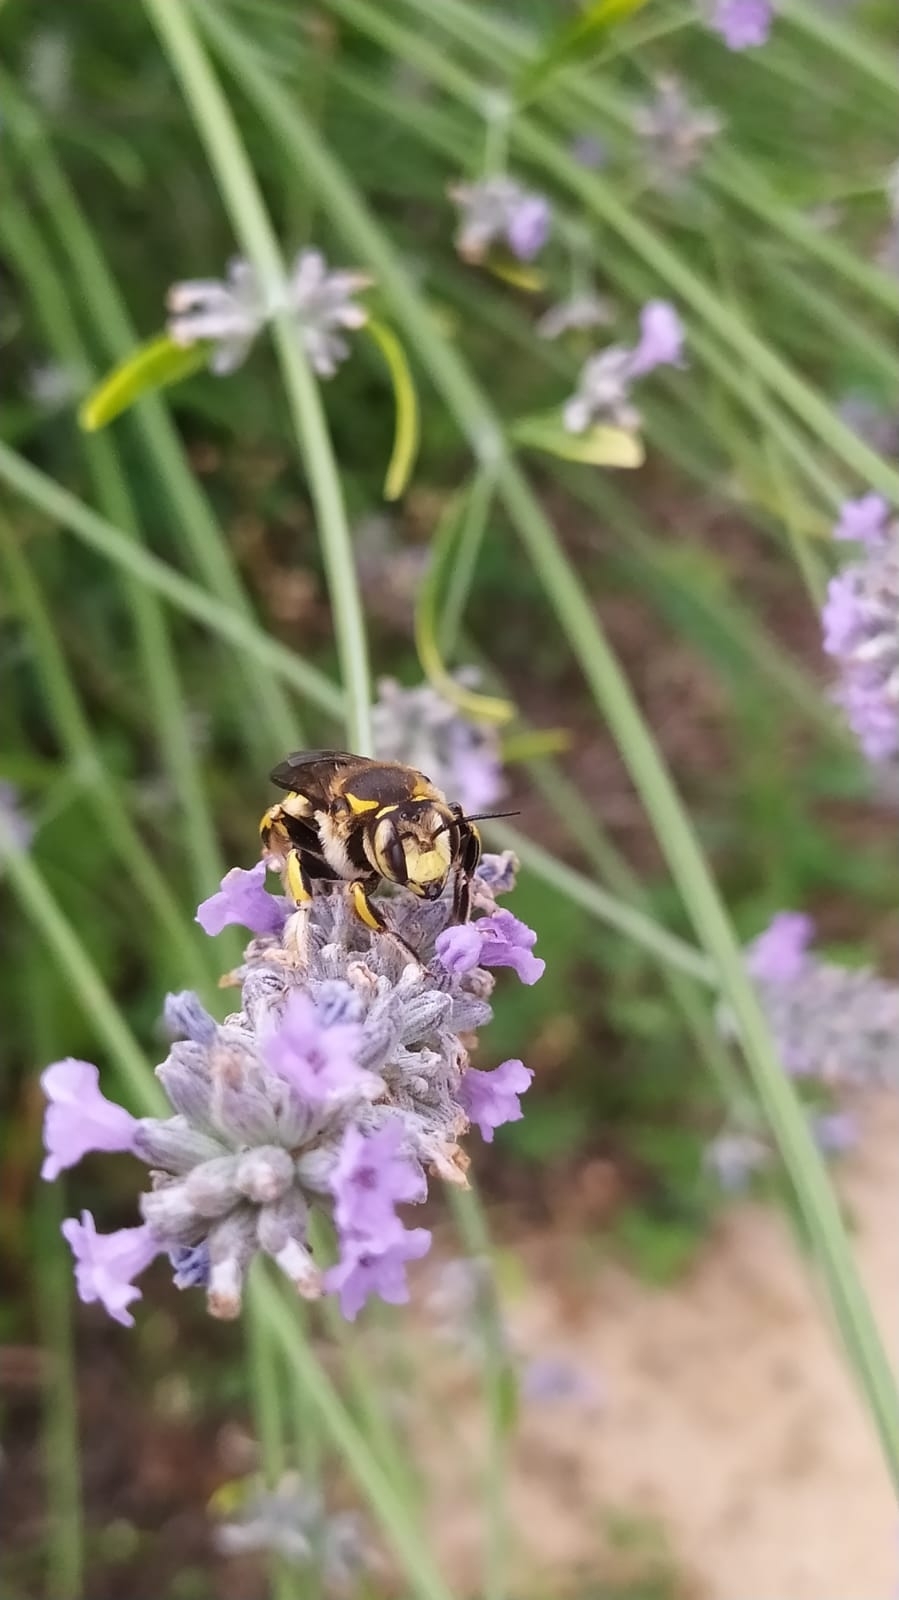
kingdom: Animalia
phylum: Arthropoda
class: Insecta
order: Hymenoptera
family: Megachilidae
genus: Anthidium
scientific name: Anthidium florentinum
